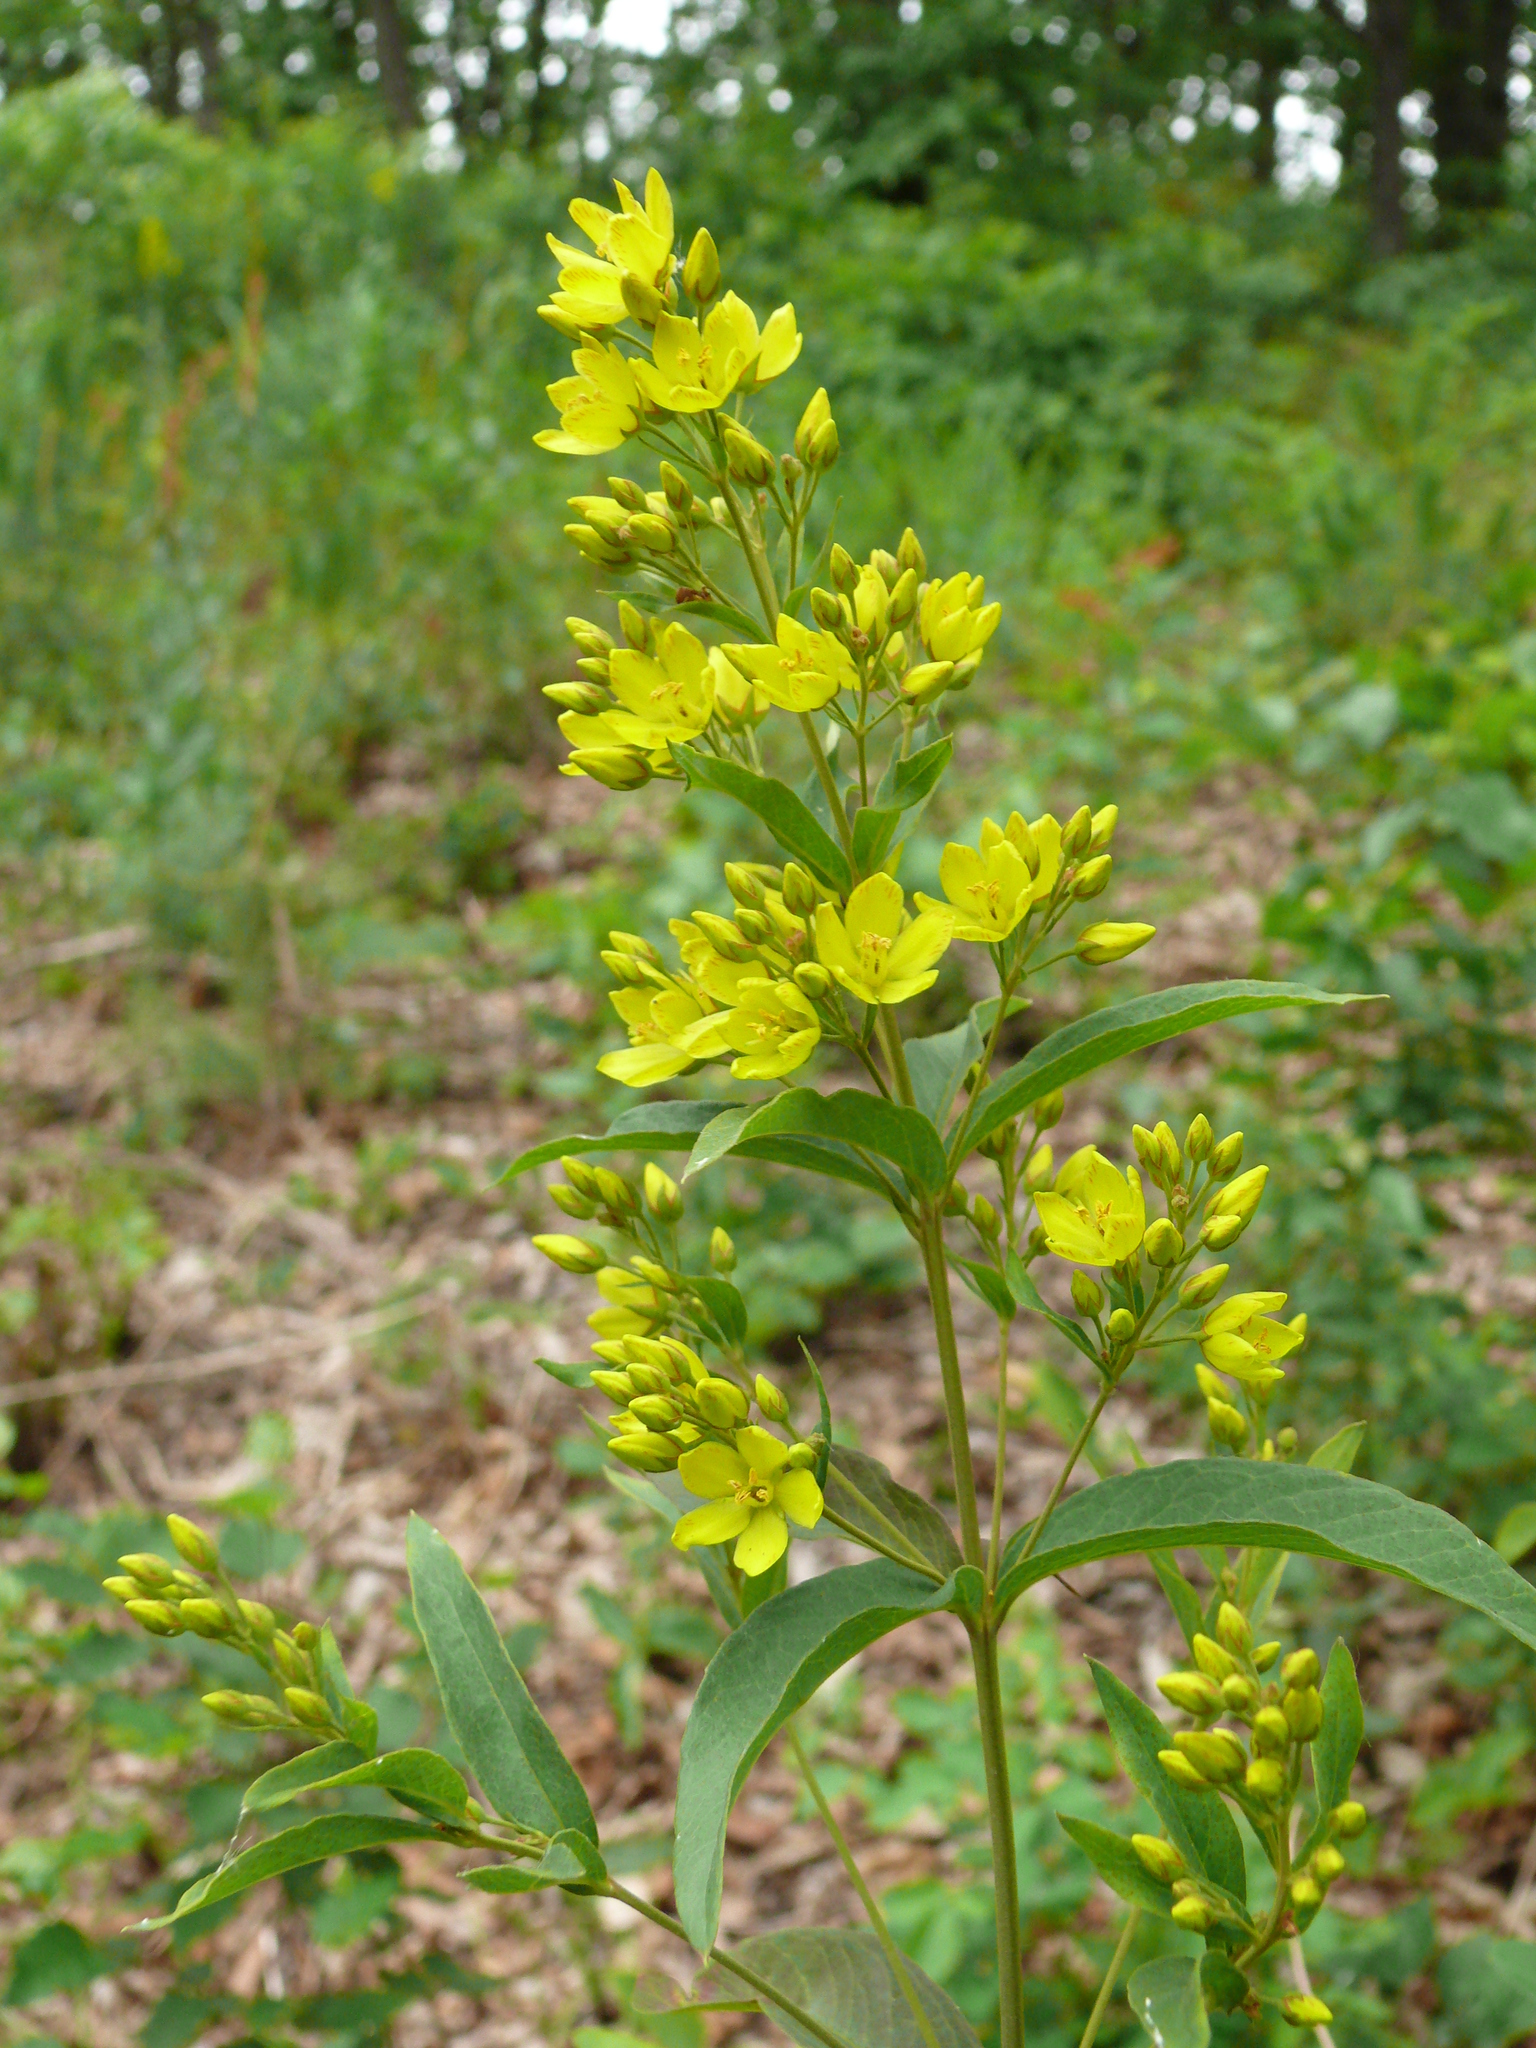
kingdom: Plantae
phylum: Tracheophyta
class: Magnoliopsida
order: Ericales
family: Primulaceae
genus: Lysimachia
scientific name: Lysimachia davurica
